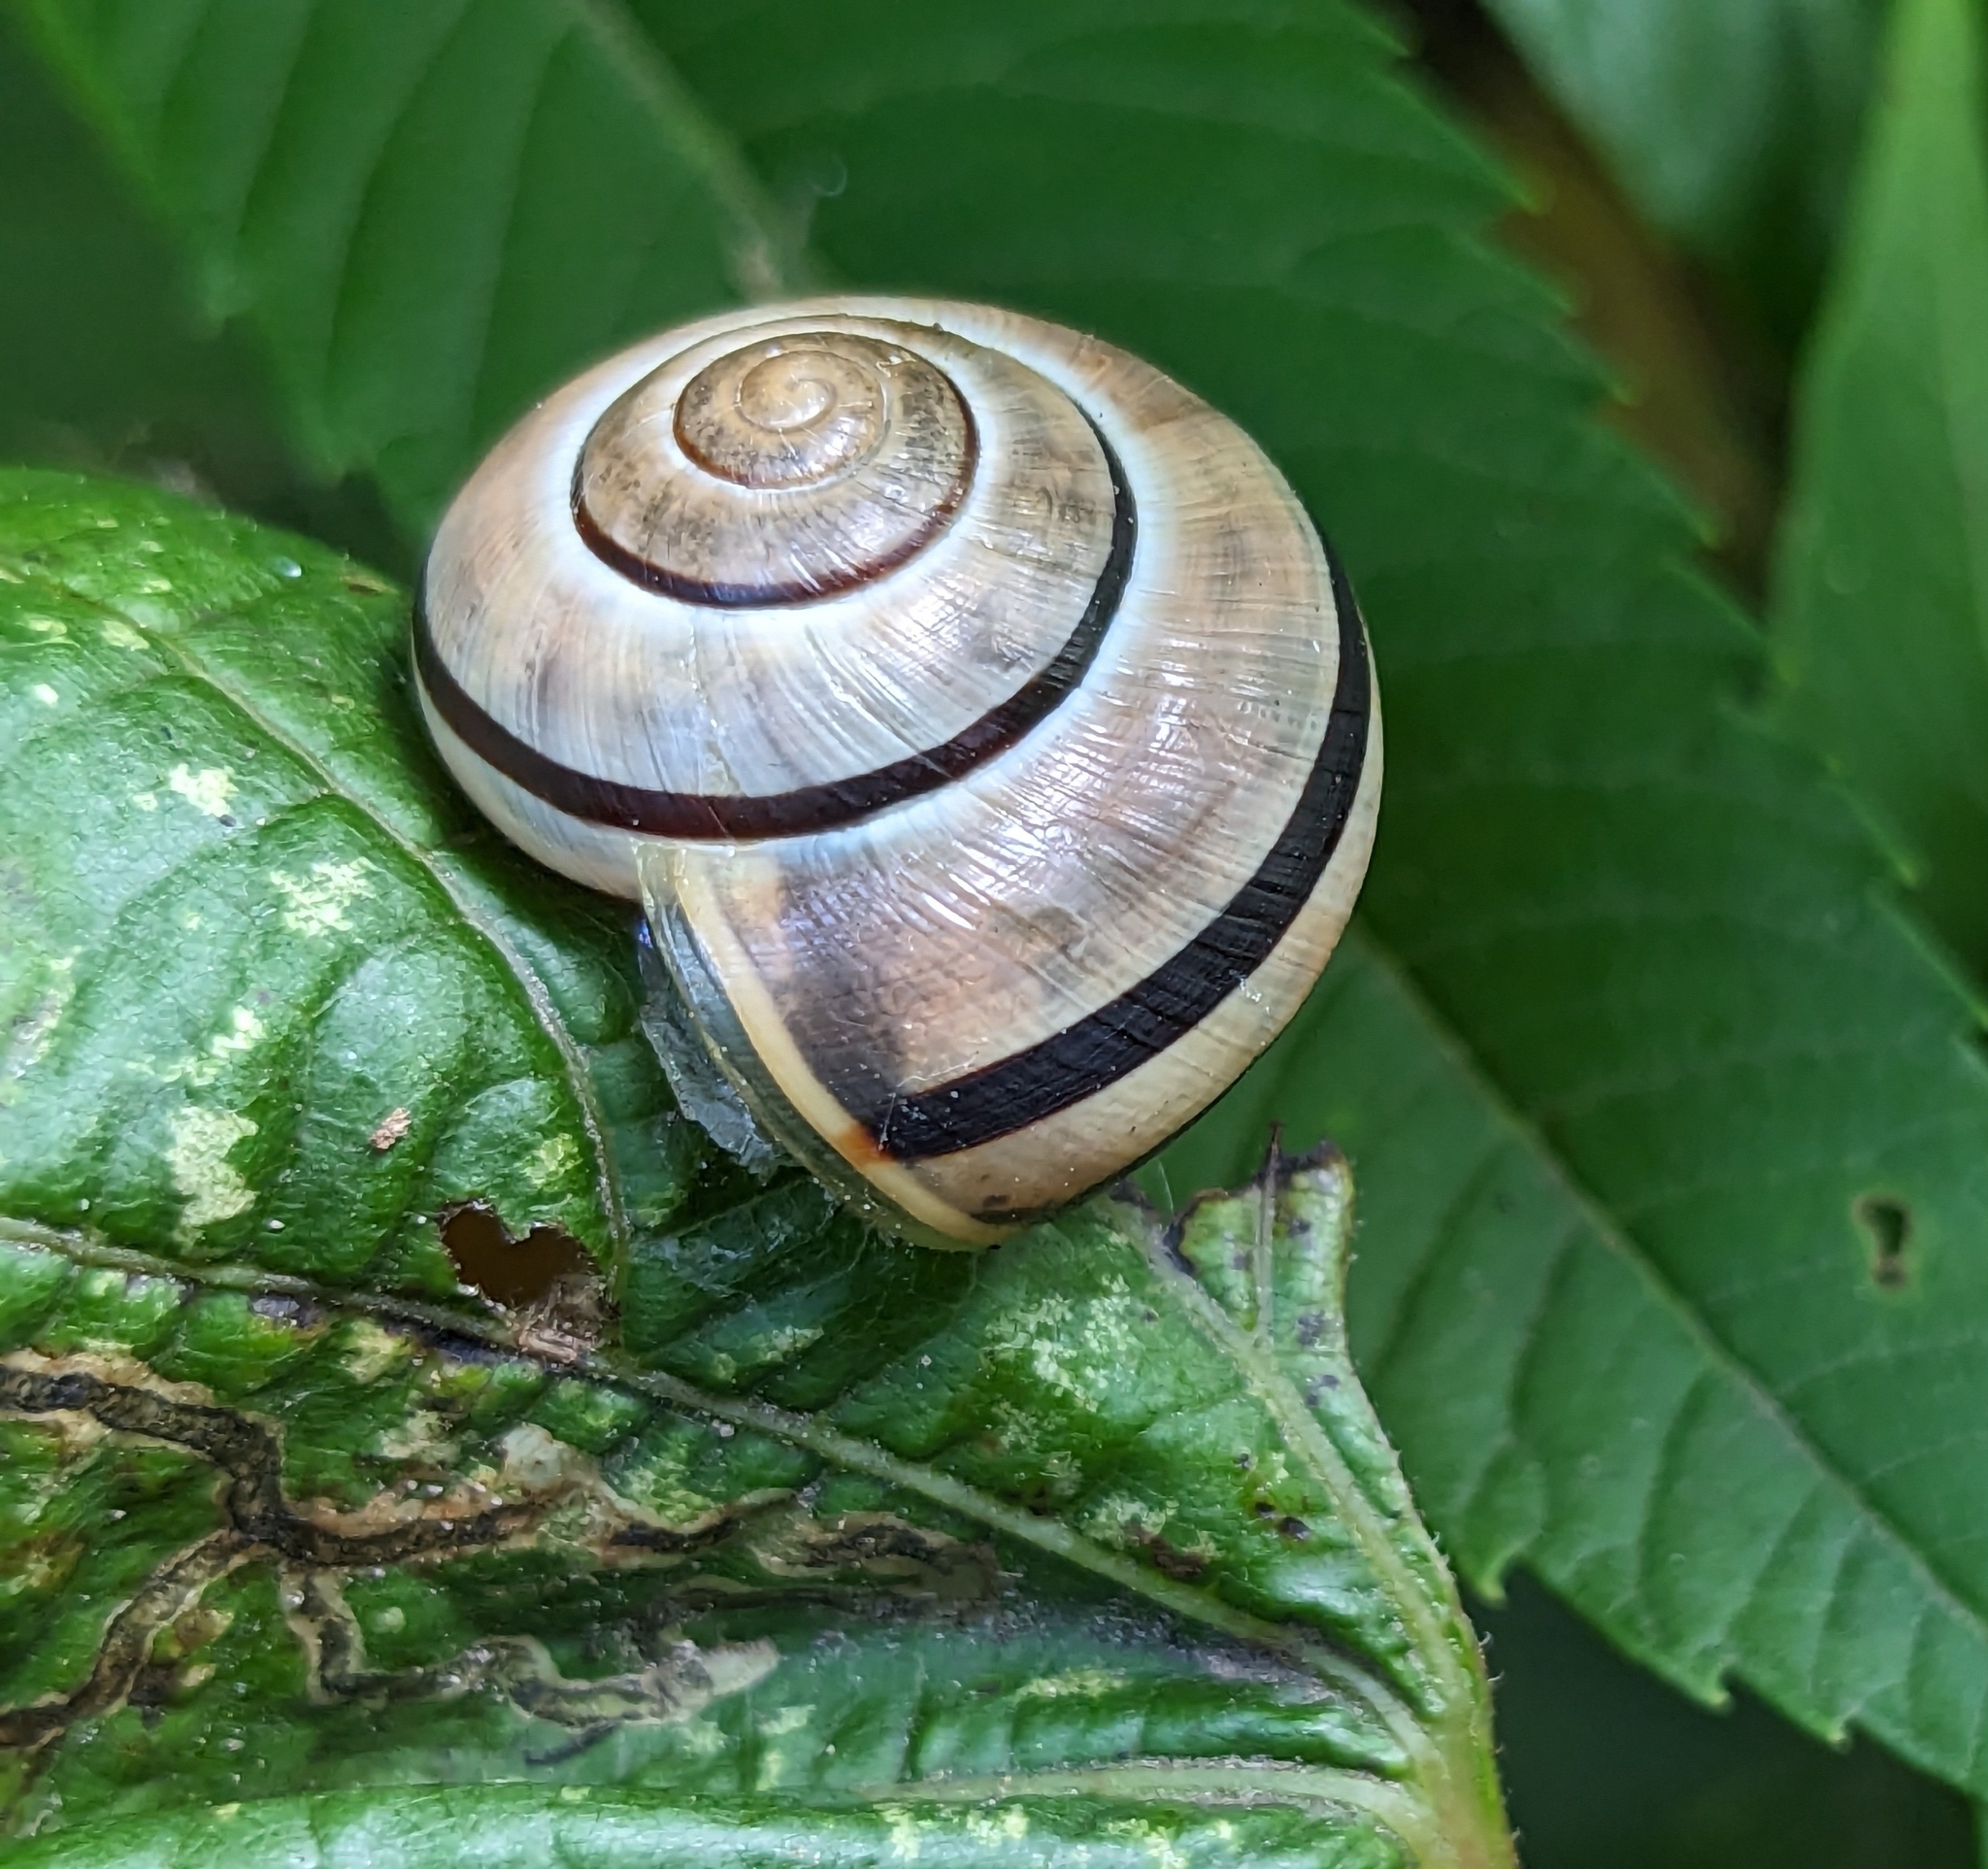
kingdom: Animalia
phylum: Mollusca
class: Gastropoda
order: Stylommatophora
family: Helicidae
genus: Cepaea
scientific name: Cepaea nemoralis
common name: Grovesnail
